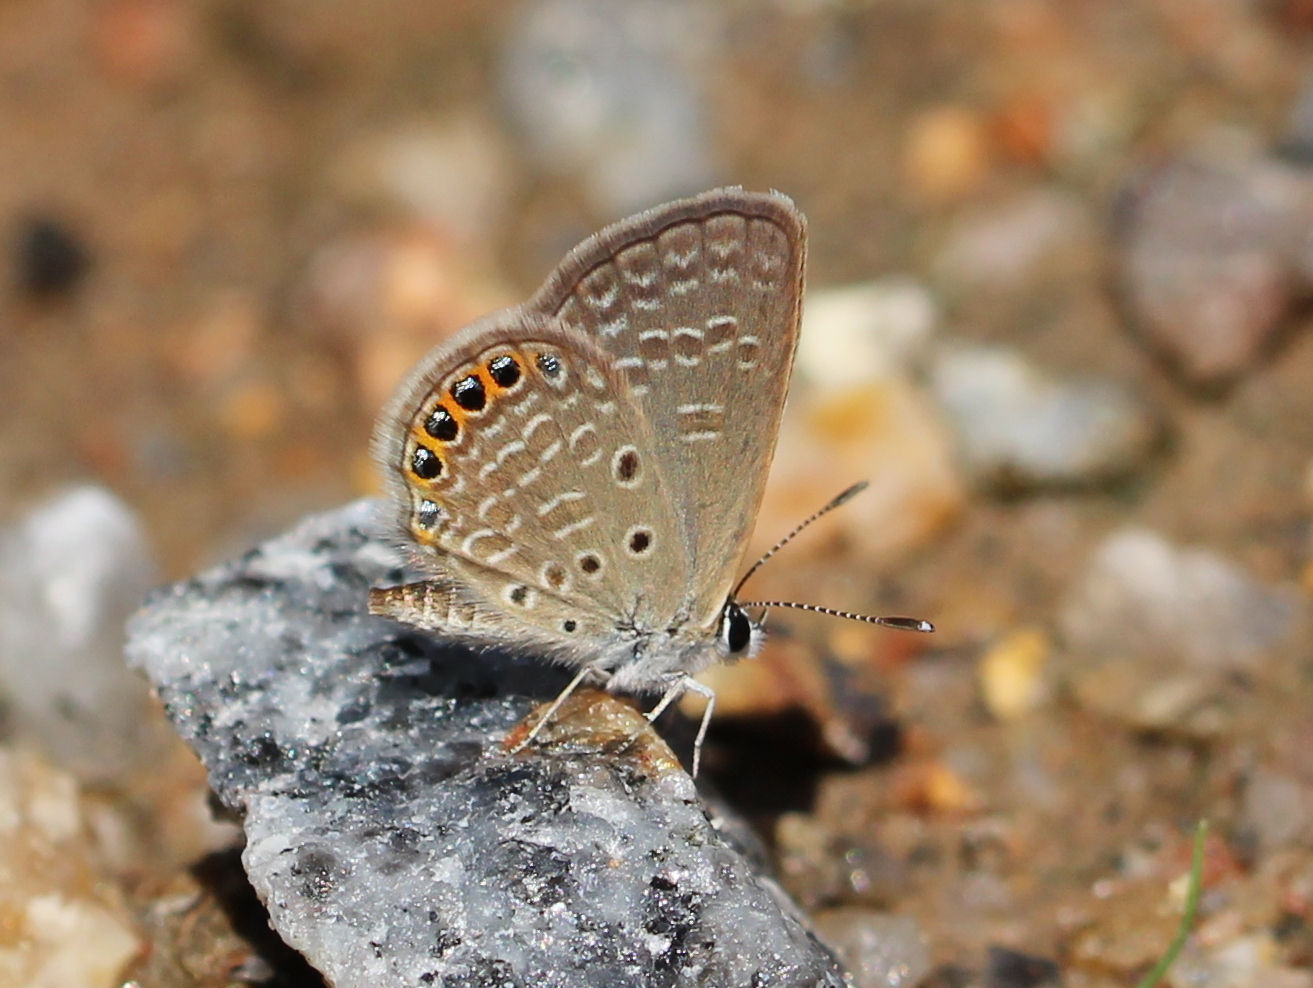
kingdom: Animalia
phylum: Arthropoda
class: Insecta
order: Lepidoptera
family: Lycaenidae
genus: Freyeria
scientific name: Freyeria putli
